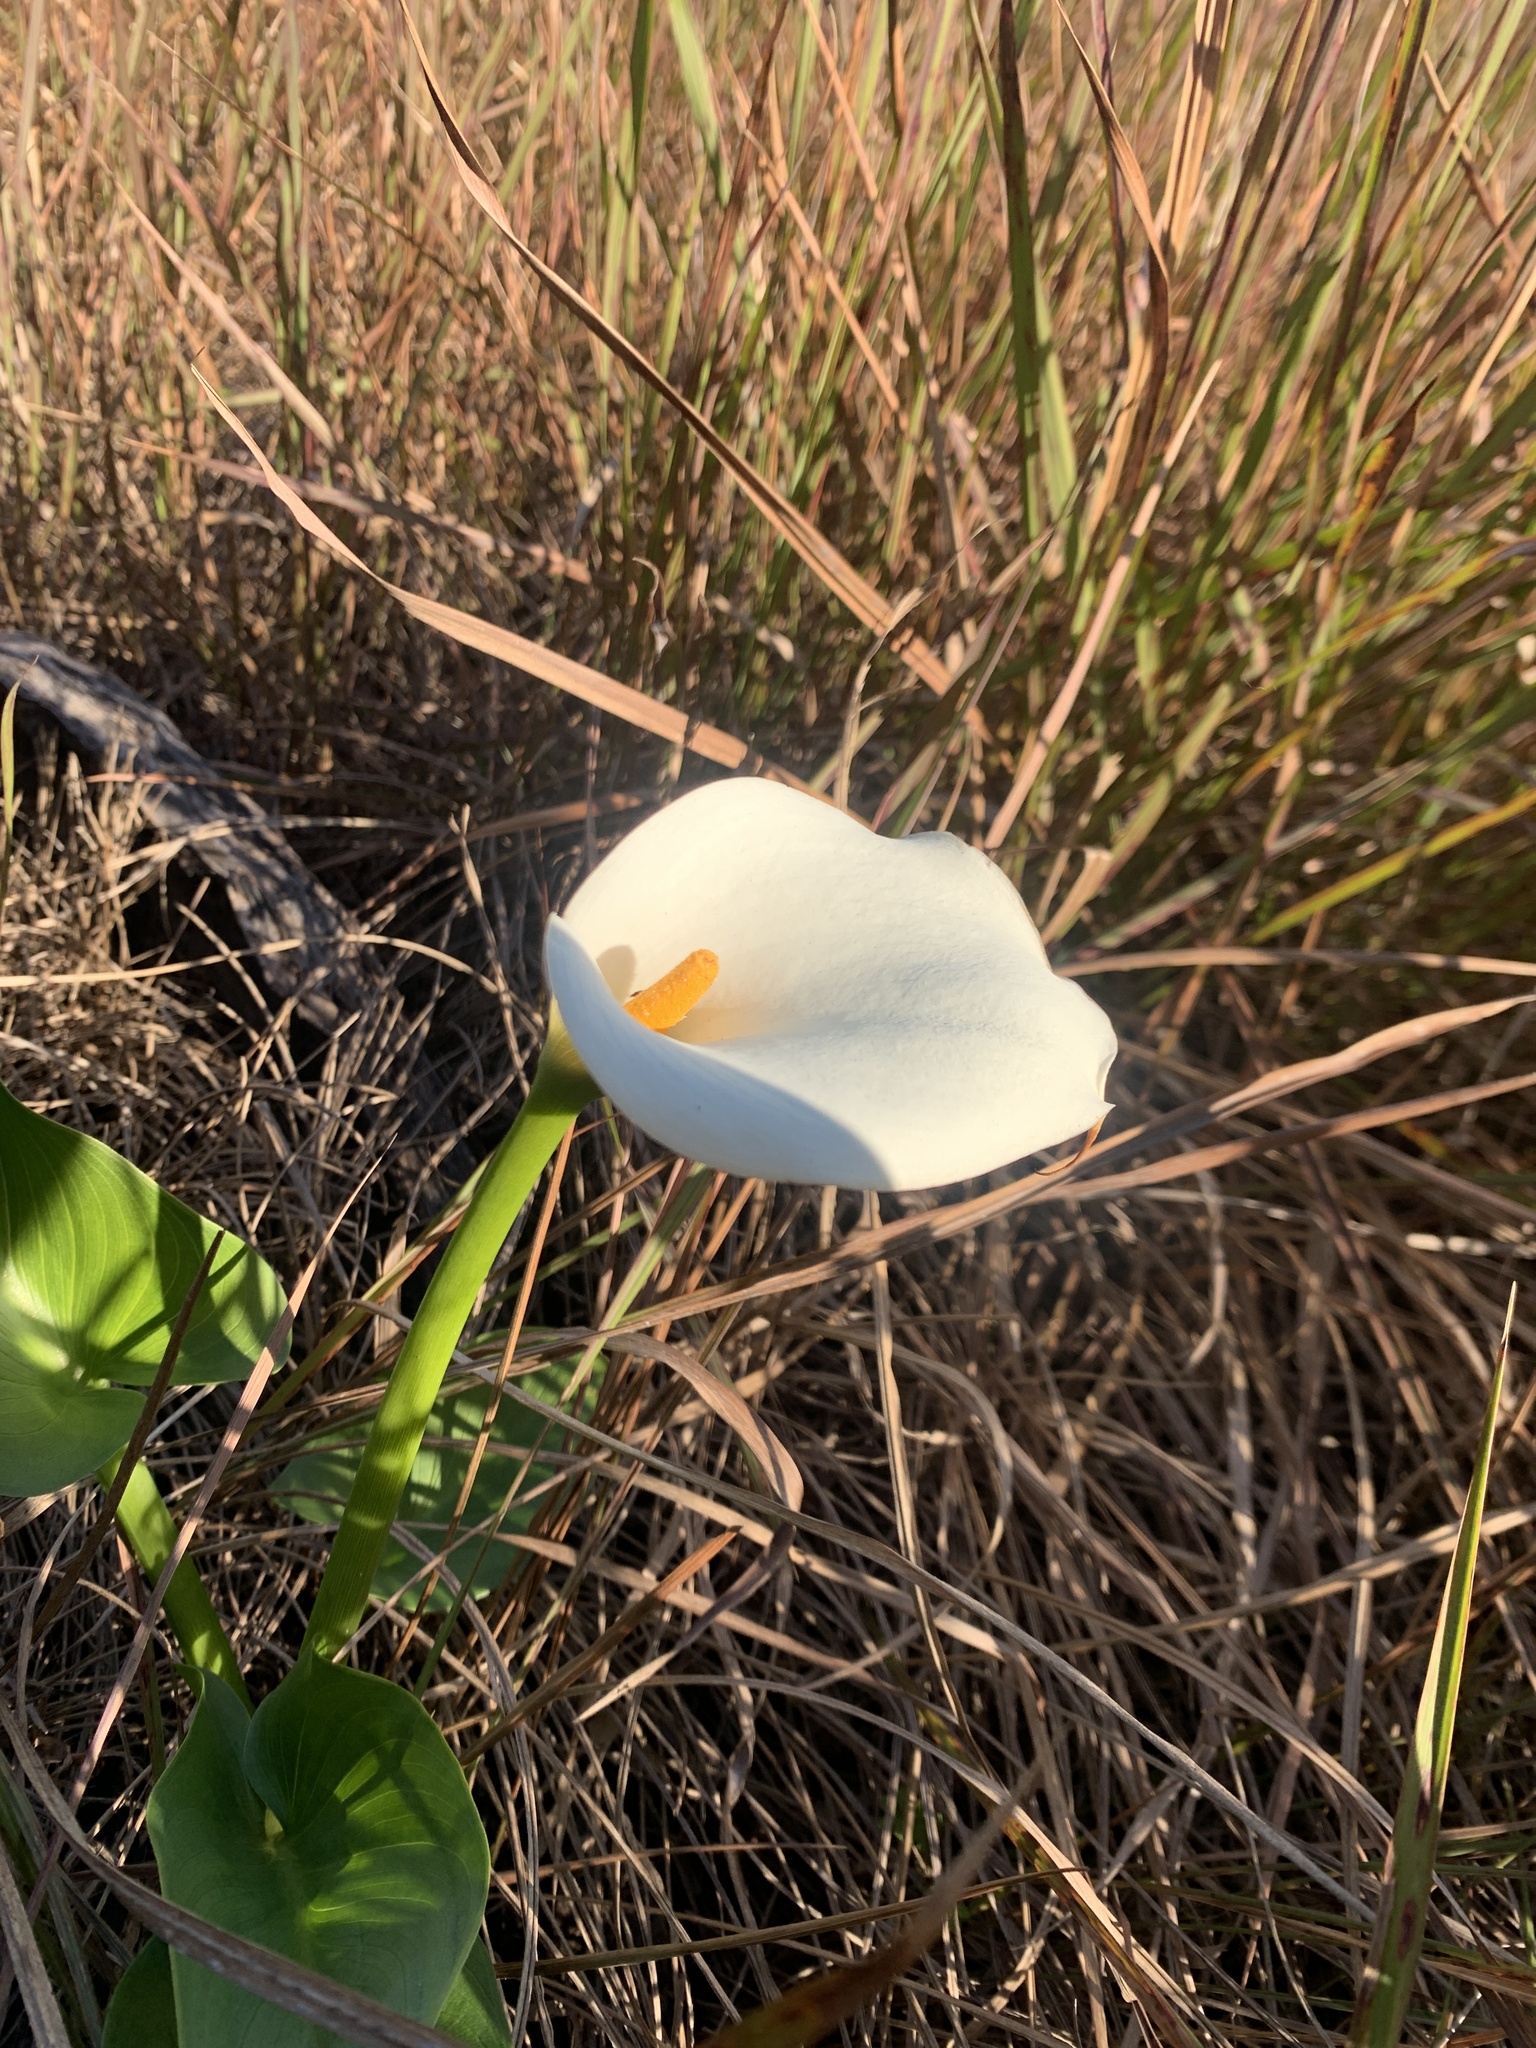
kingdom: Plantae
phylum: Tracheophyta
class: Liliopsida
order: Alismatales
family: Araceae
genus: Zantedeschia
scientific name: Zantedeschia aethiopica
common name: Altar-lily
